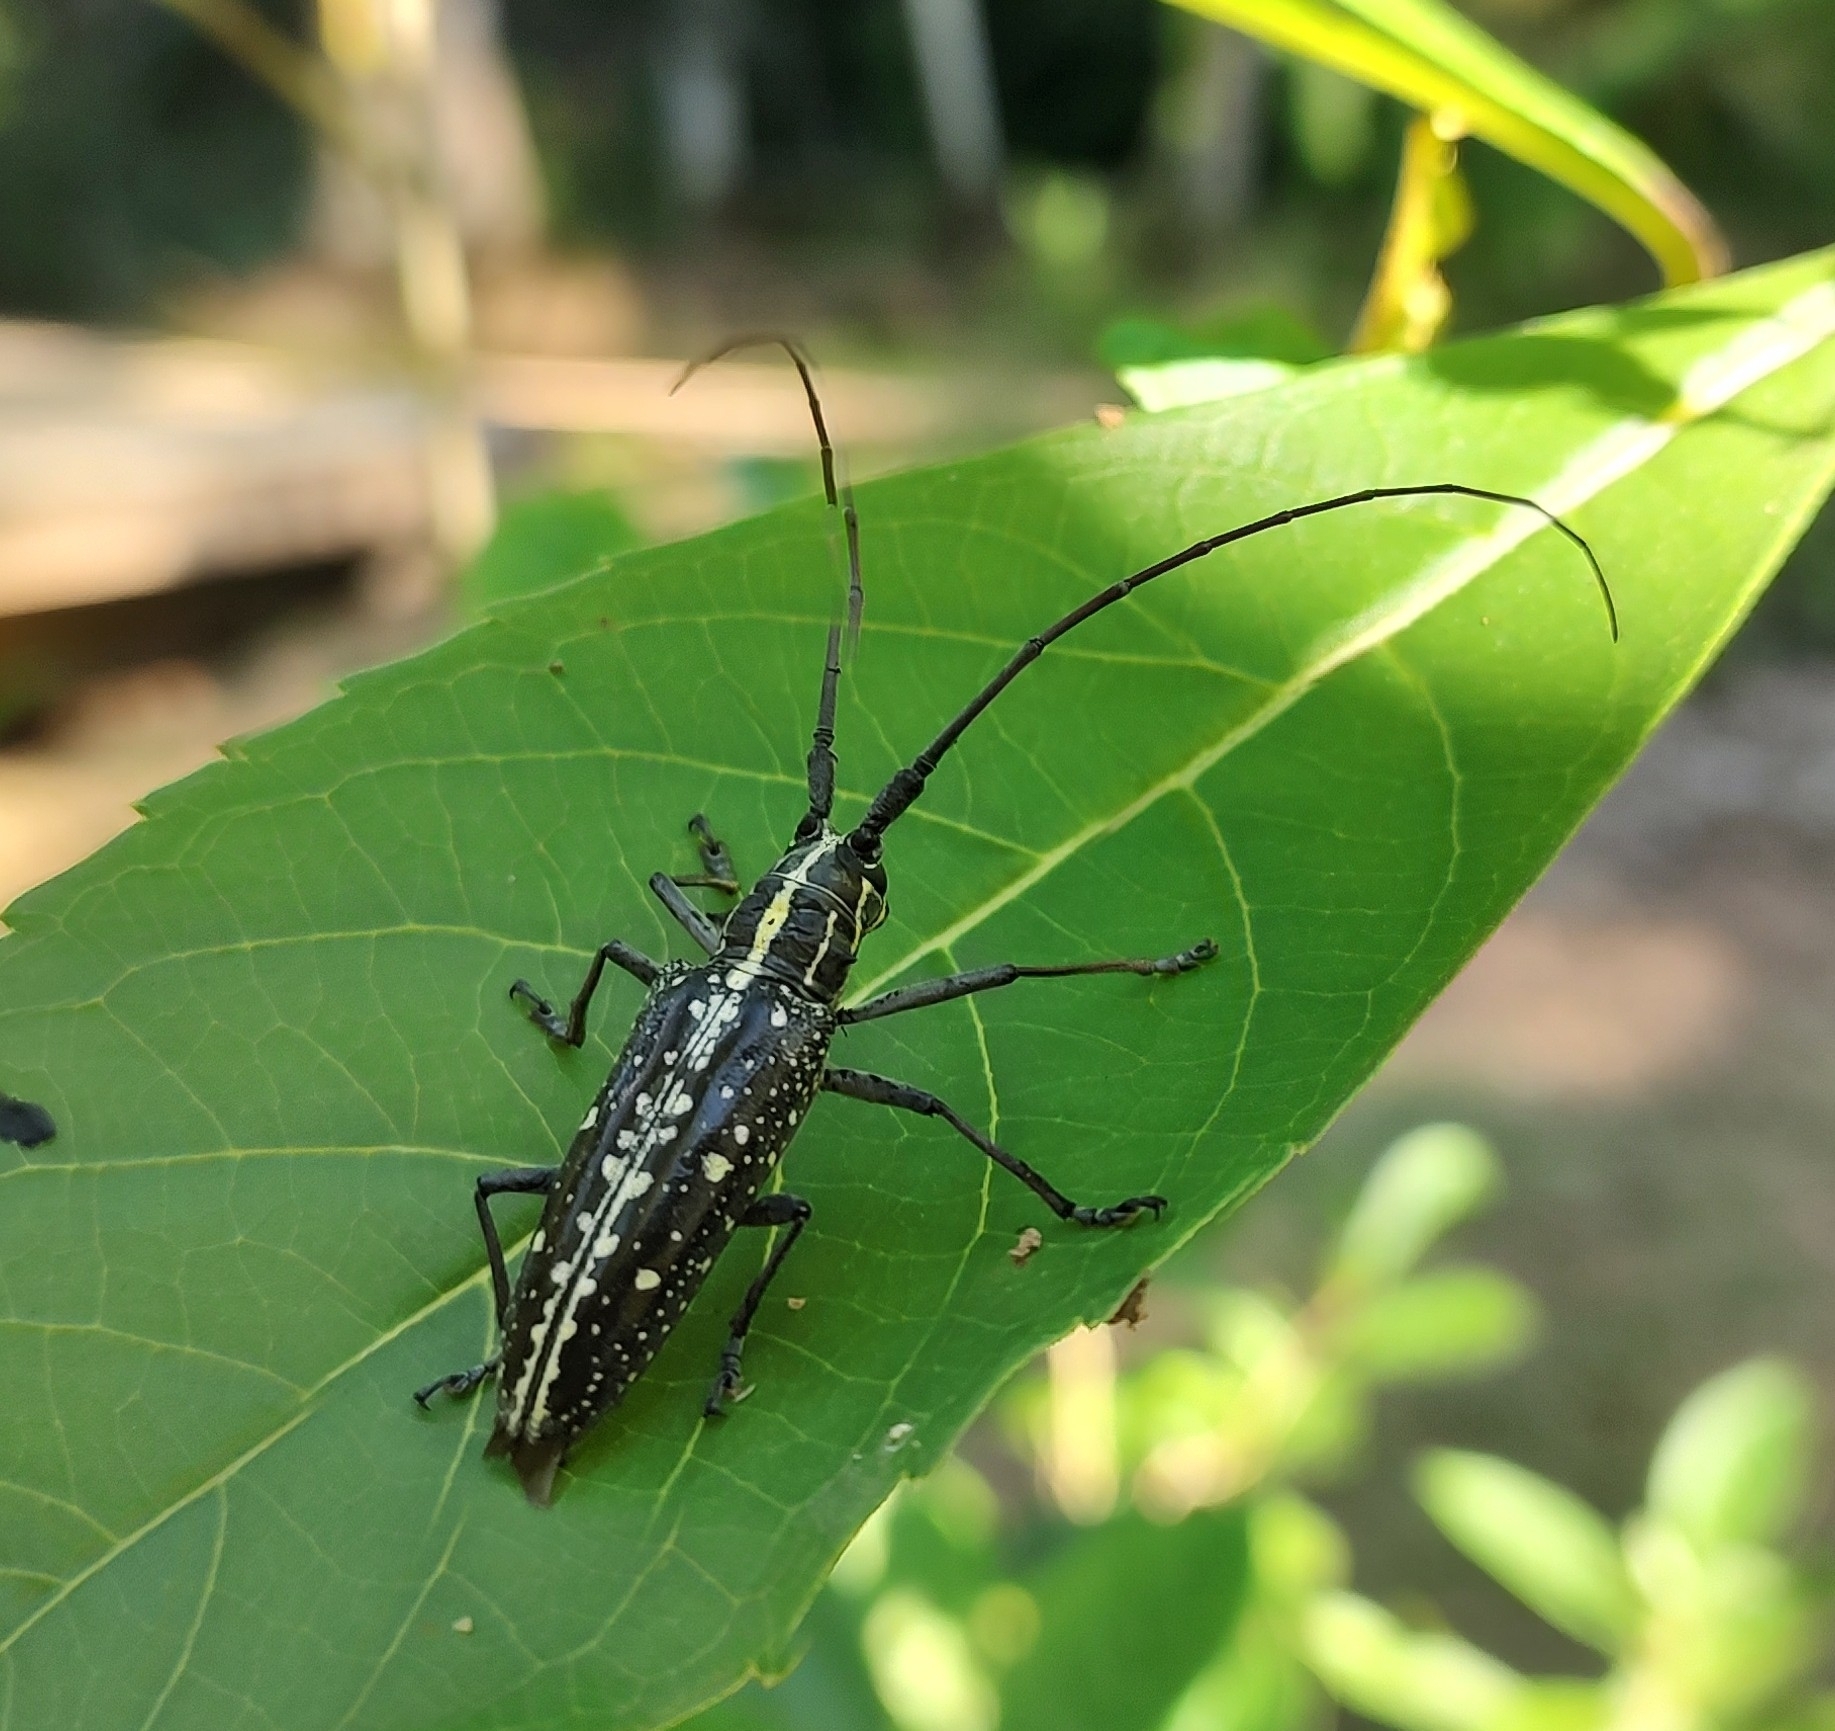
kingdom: Animalia
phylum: Arthropoda
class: Insecta
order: Coleoptera
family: Cerambycidae
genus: Taeniotes
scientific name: Taeniotes amazonum
